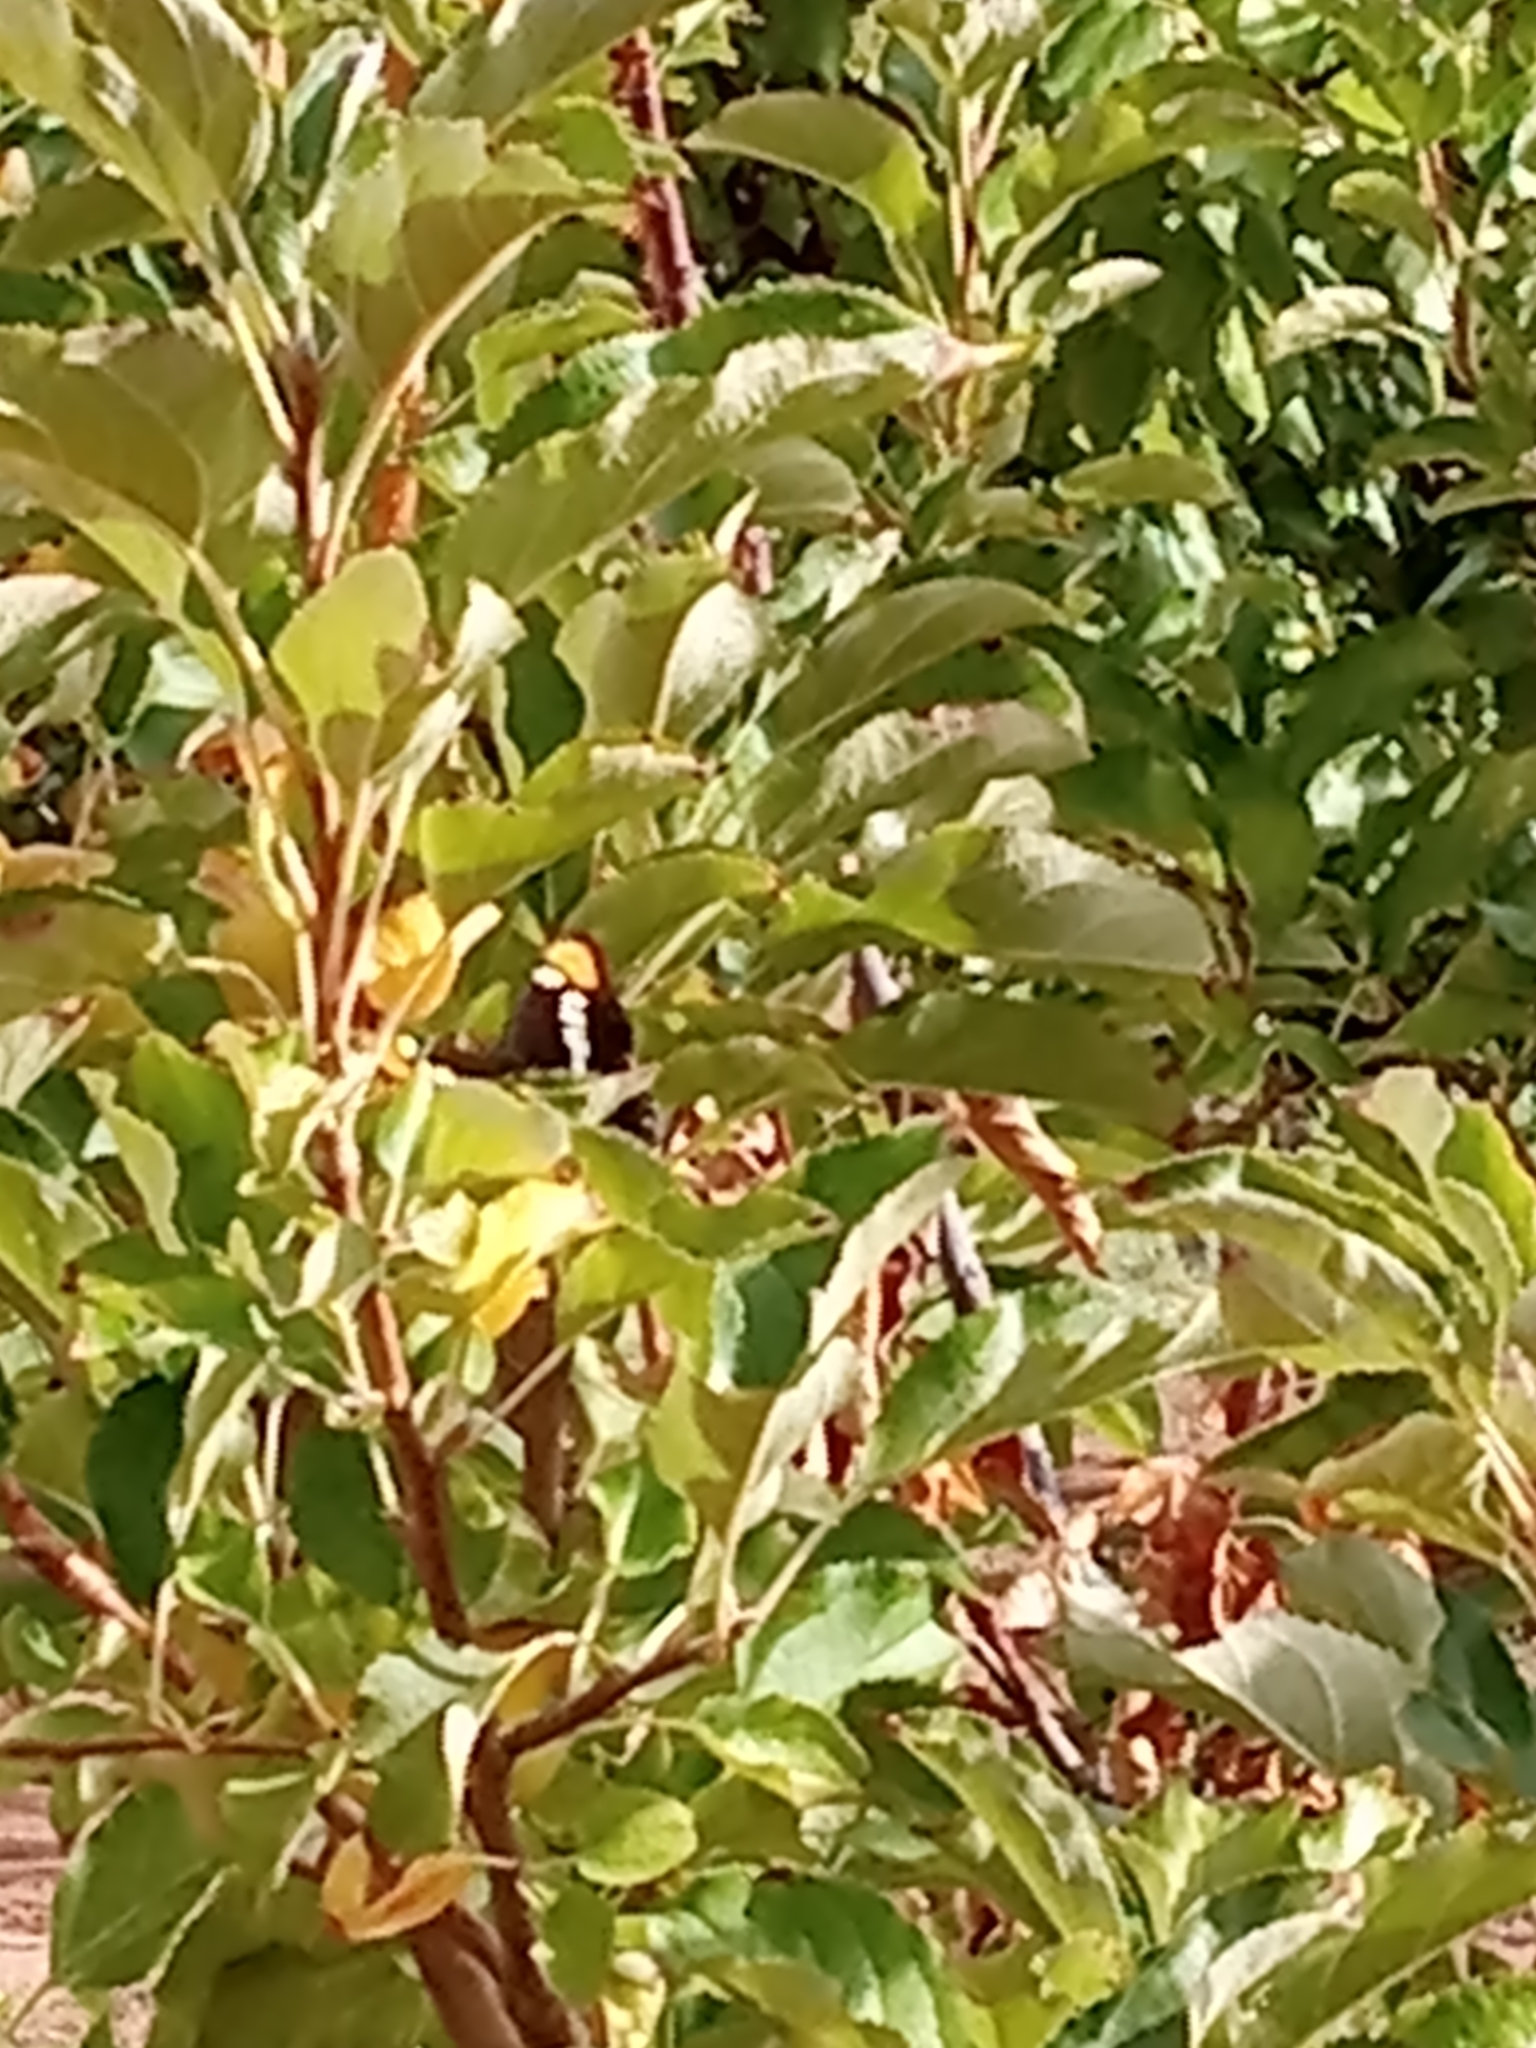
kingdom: Animalia
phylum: Arthropoda
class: Insecta
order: Lepidoptera
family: Nymphalidae
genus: Limenitis
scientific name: Limenitis bredowii
